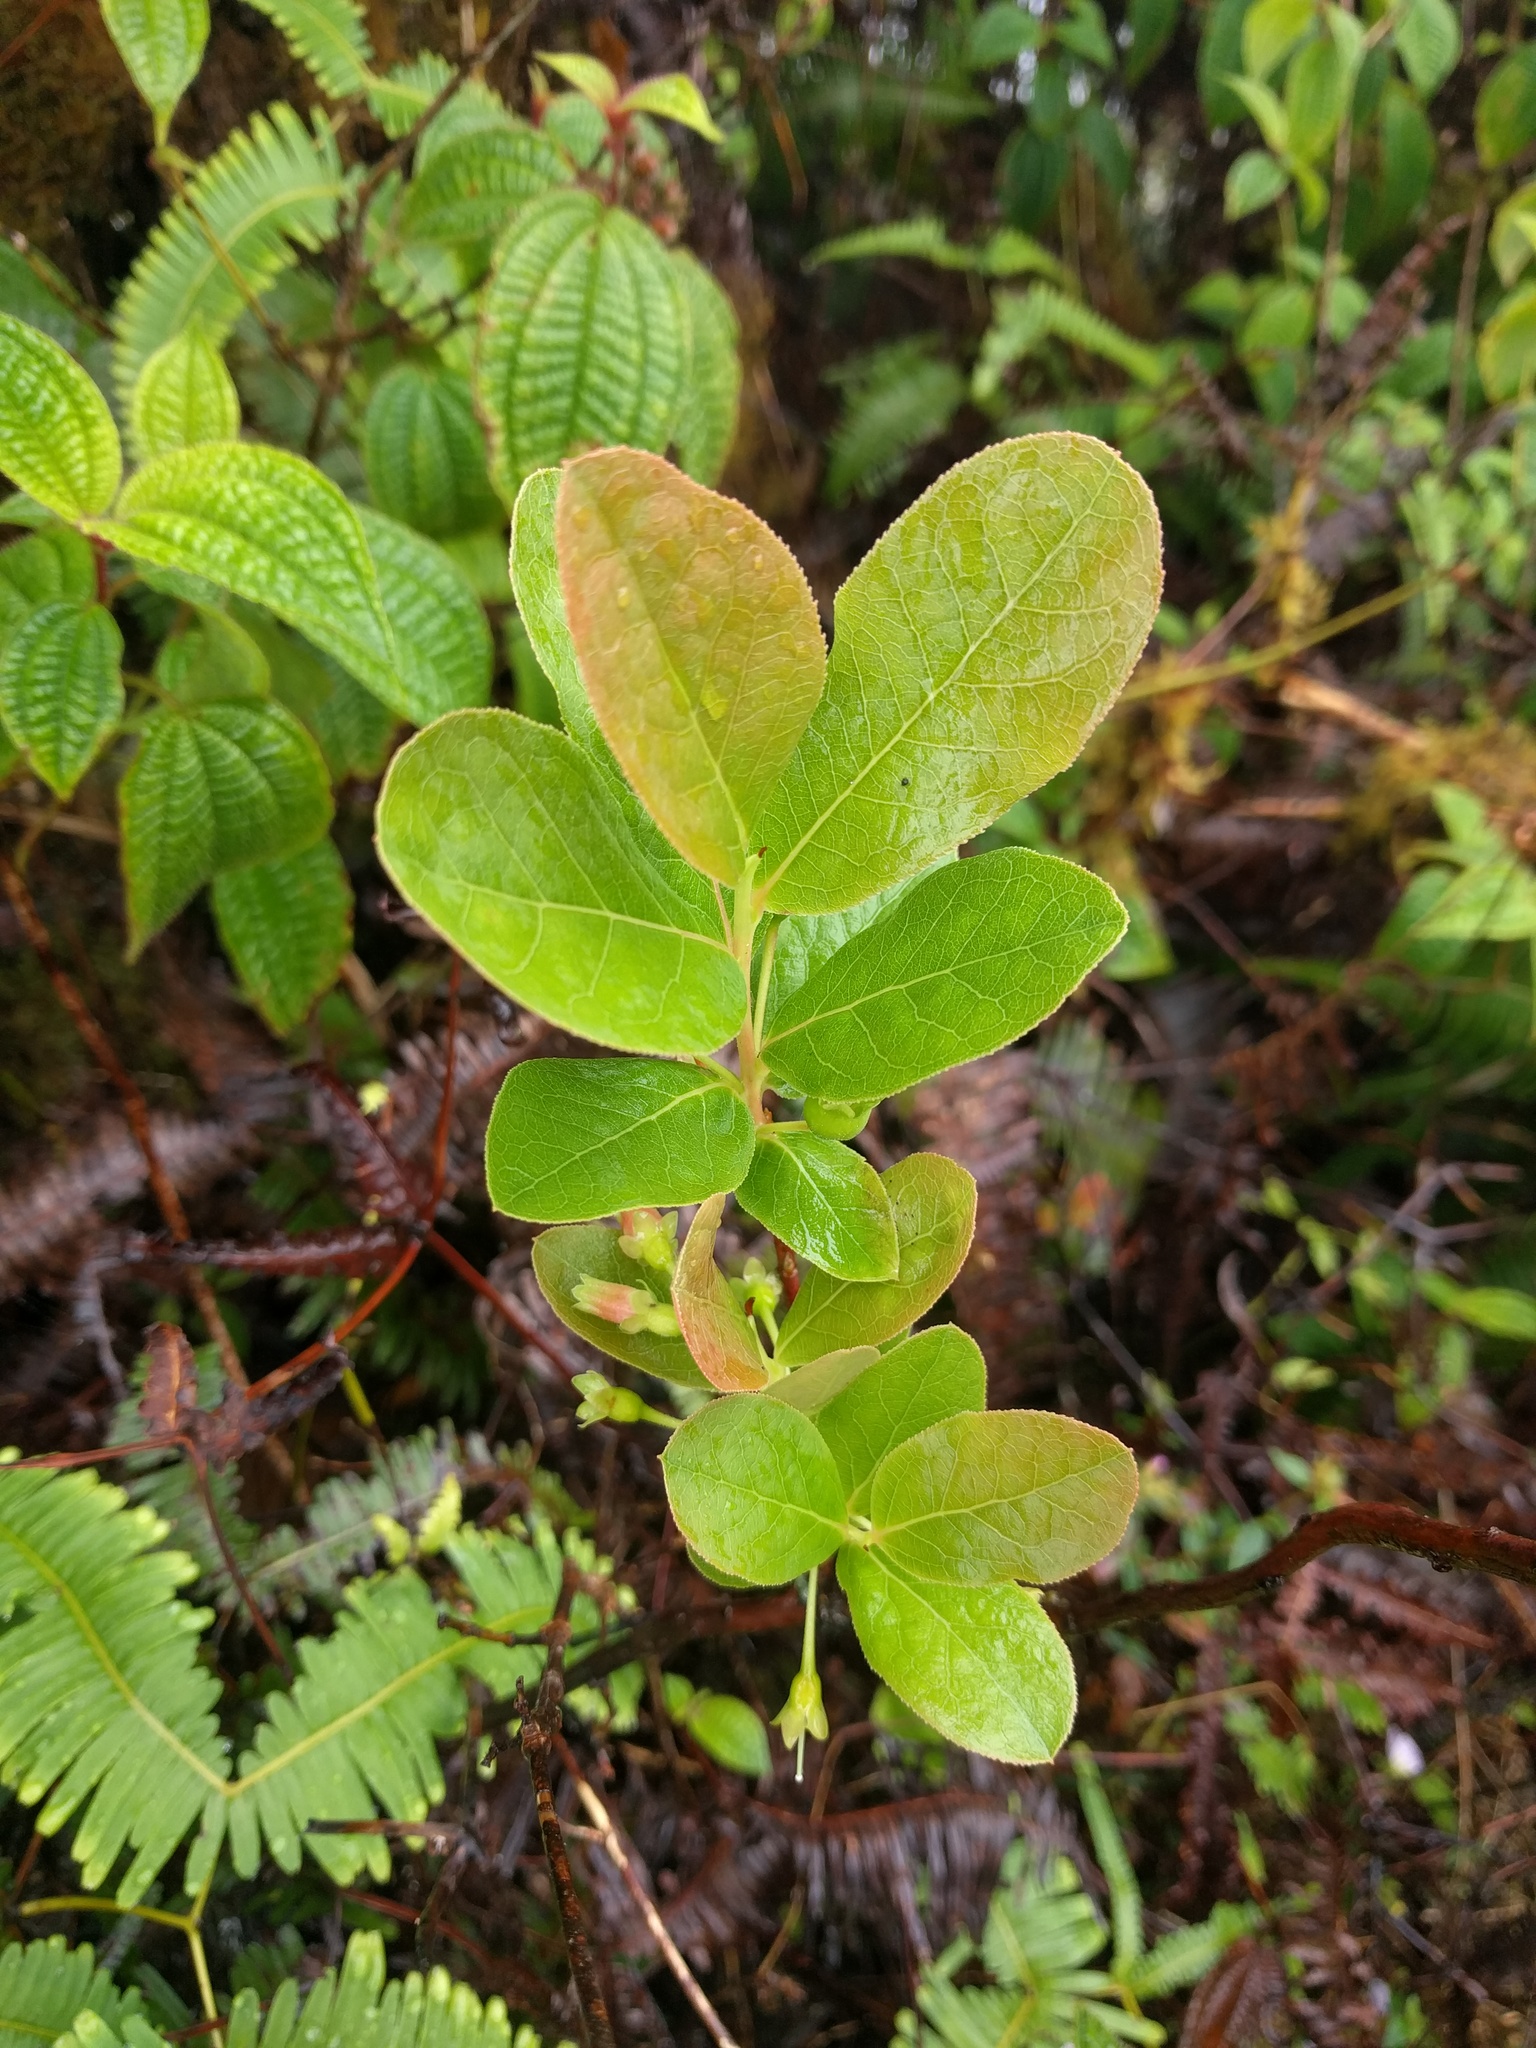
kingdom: Plantae
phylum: Tracheophyta
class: Magnoliopsida
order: Ericales
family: Ericaceae
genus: Vaccinium
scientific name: Vaccinium calycinum
